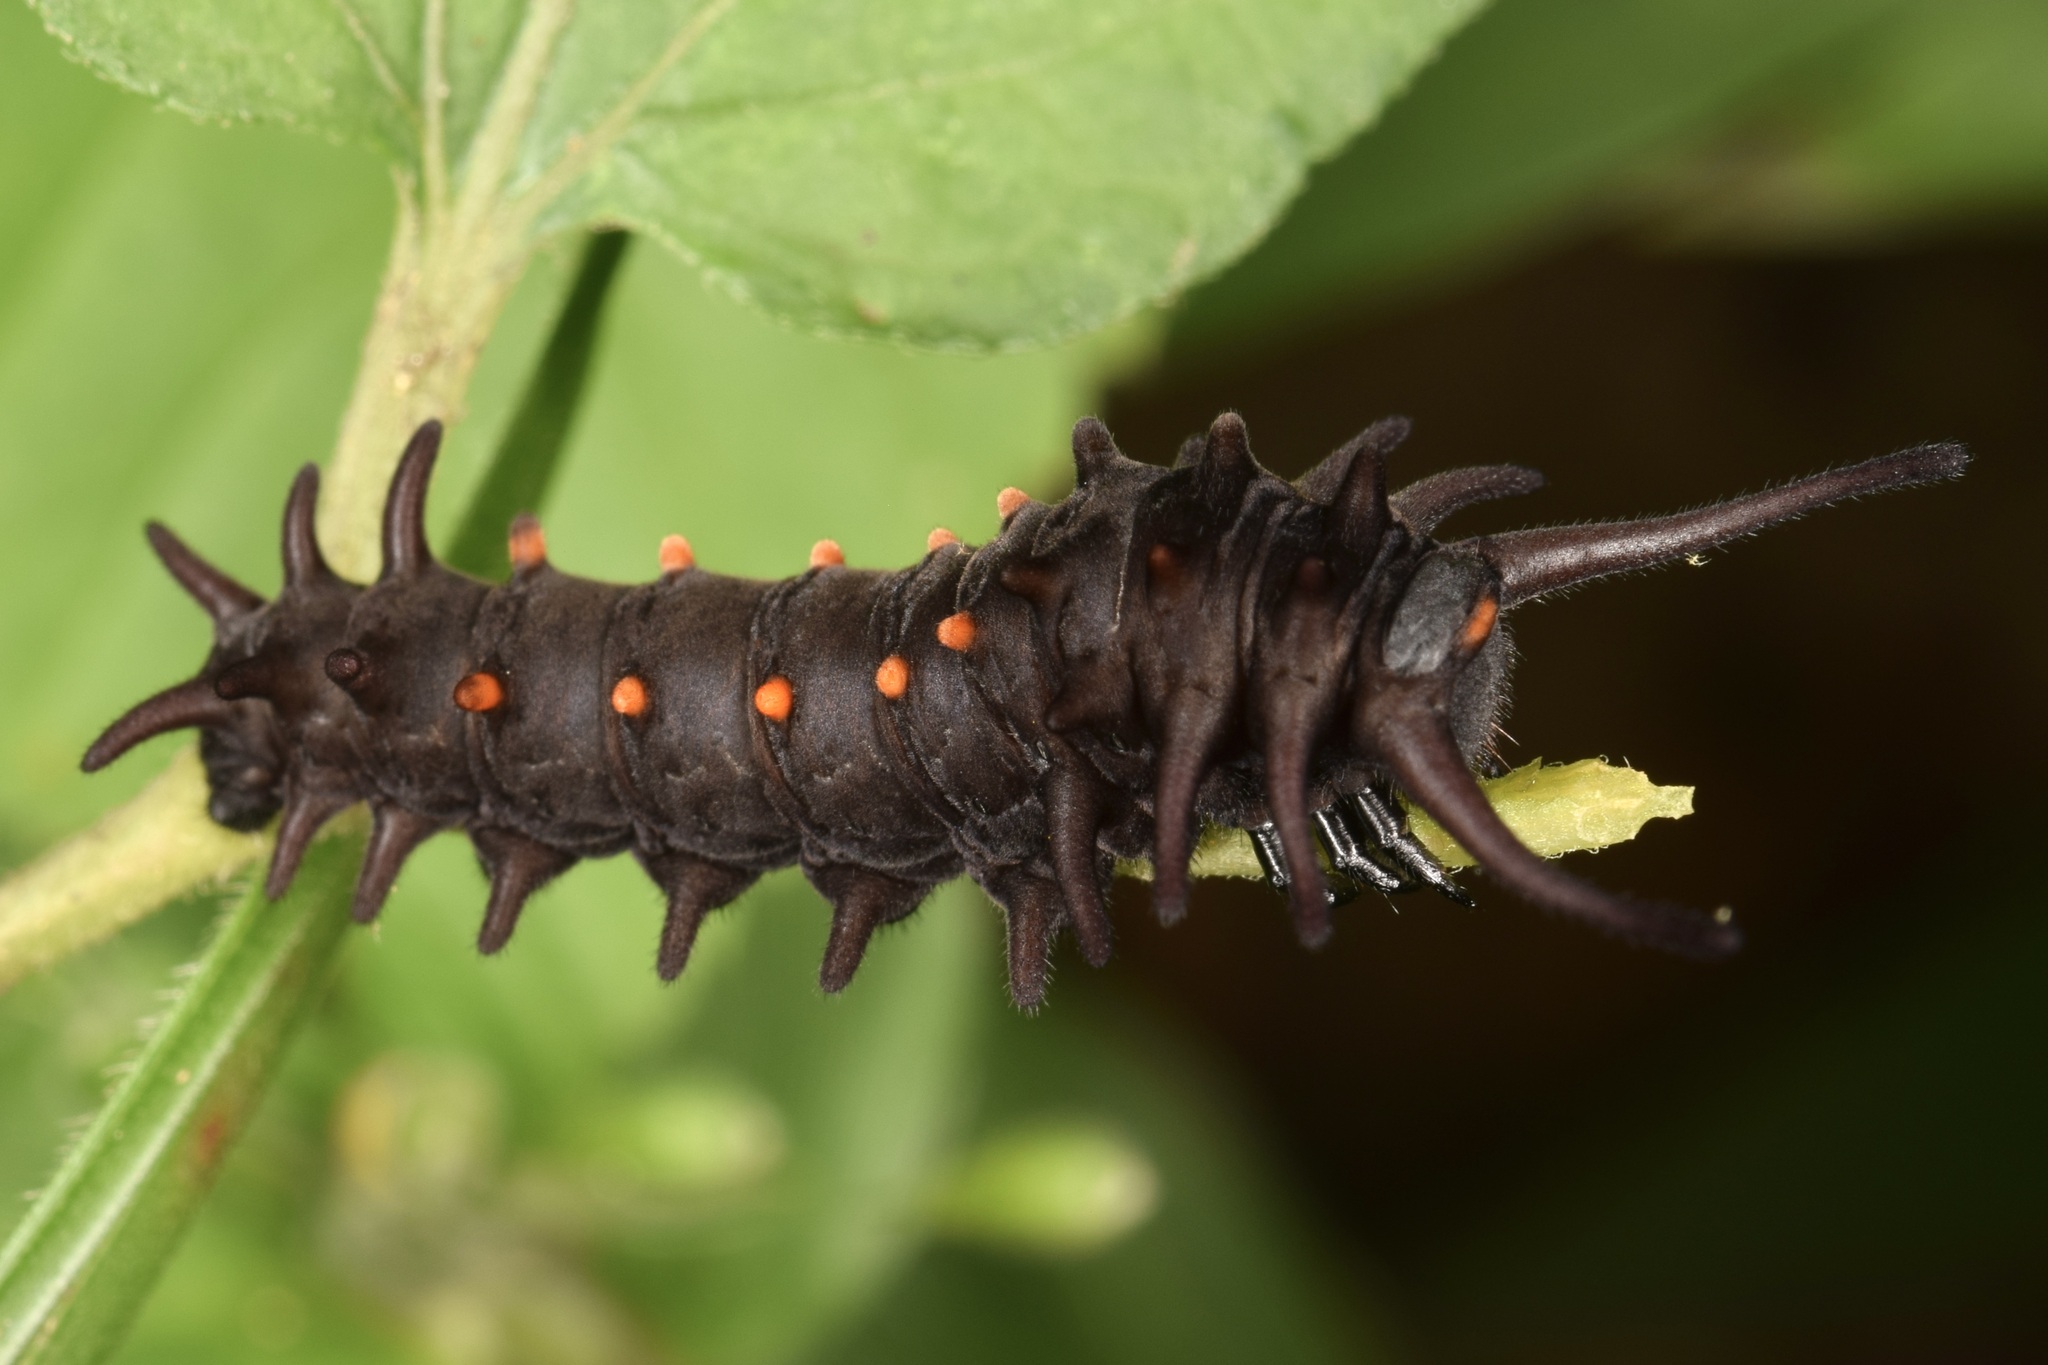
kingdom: Animalia
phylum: Arthropoda
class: Insecta
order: Lepidoptera
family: Papilionidae
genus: Battus
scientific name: Battus philenor
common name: Pipevine swallowtail
